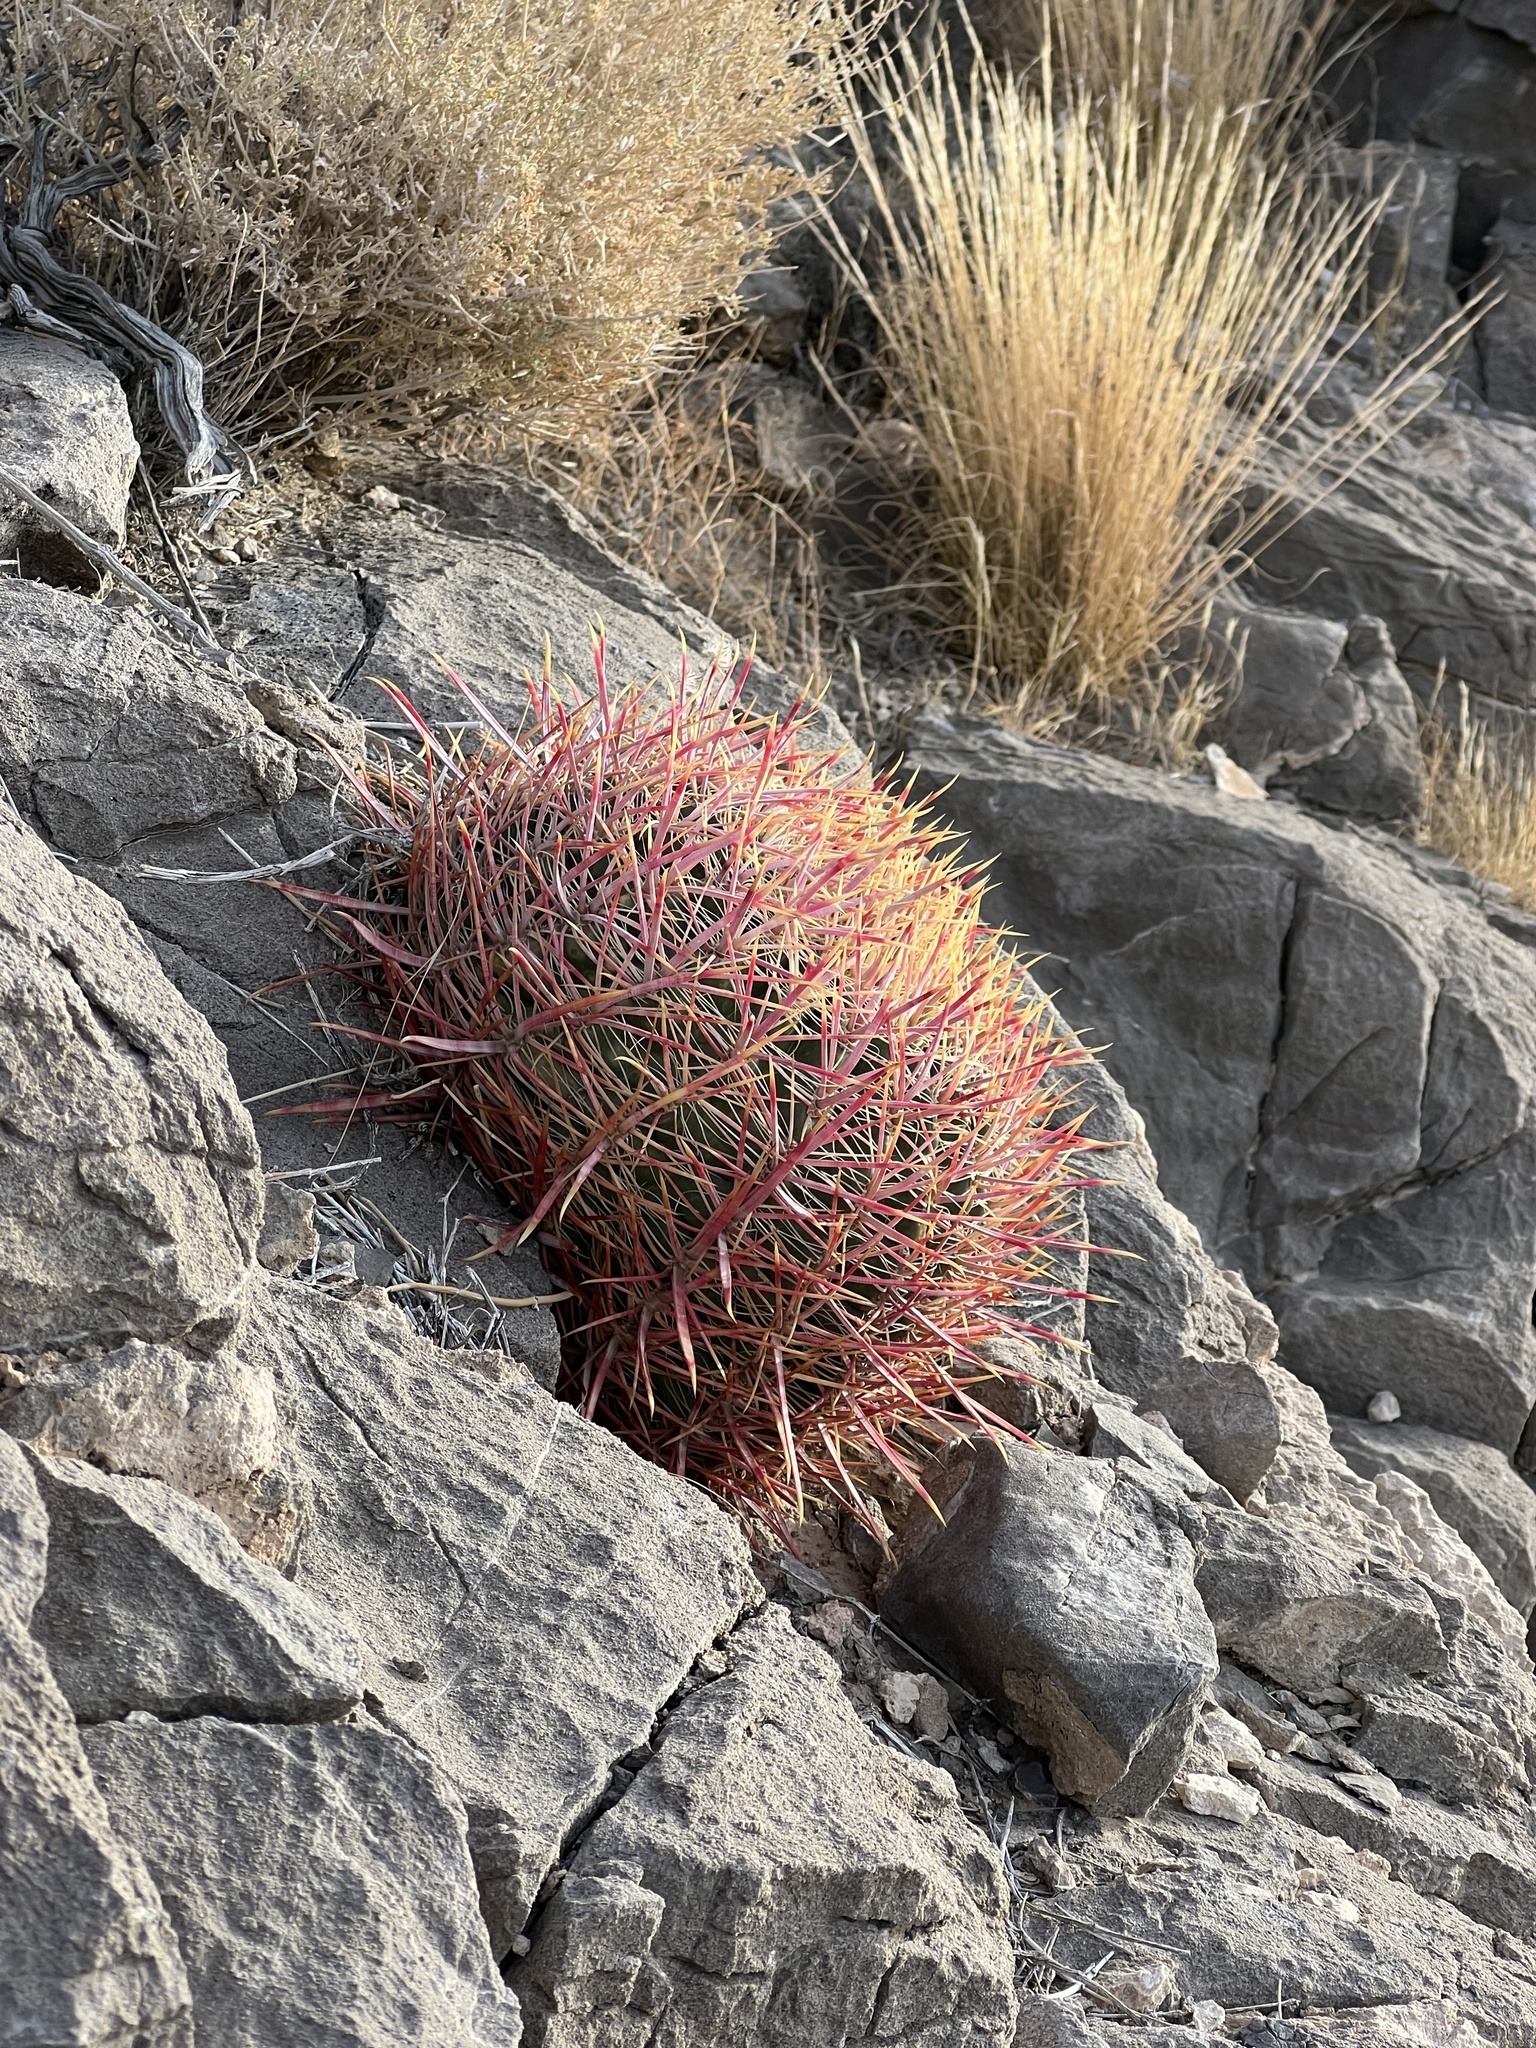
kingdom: Plantae
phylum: Tracheophyta
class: Magnoliopsida
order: Caryophyllales
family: Cactaceae
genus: Ferocactus
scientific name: Ferocactus cylindraceus
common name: California barrel cactus
